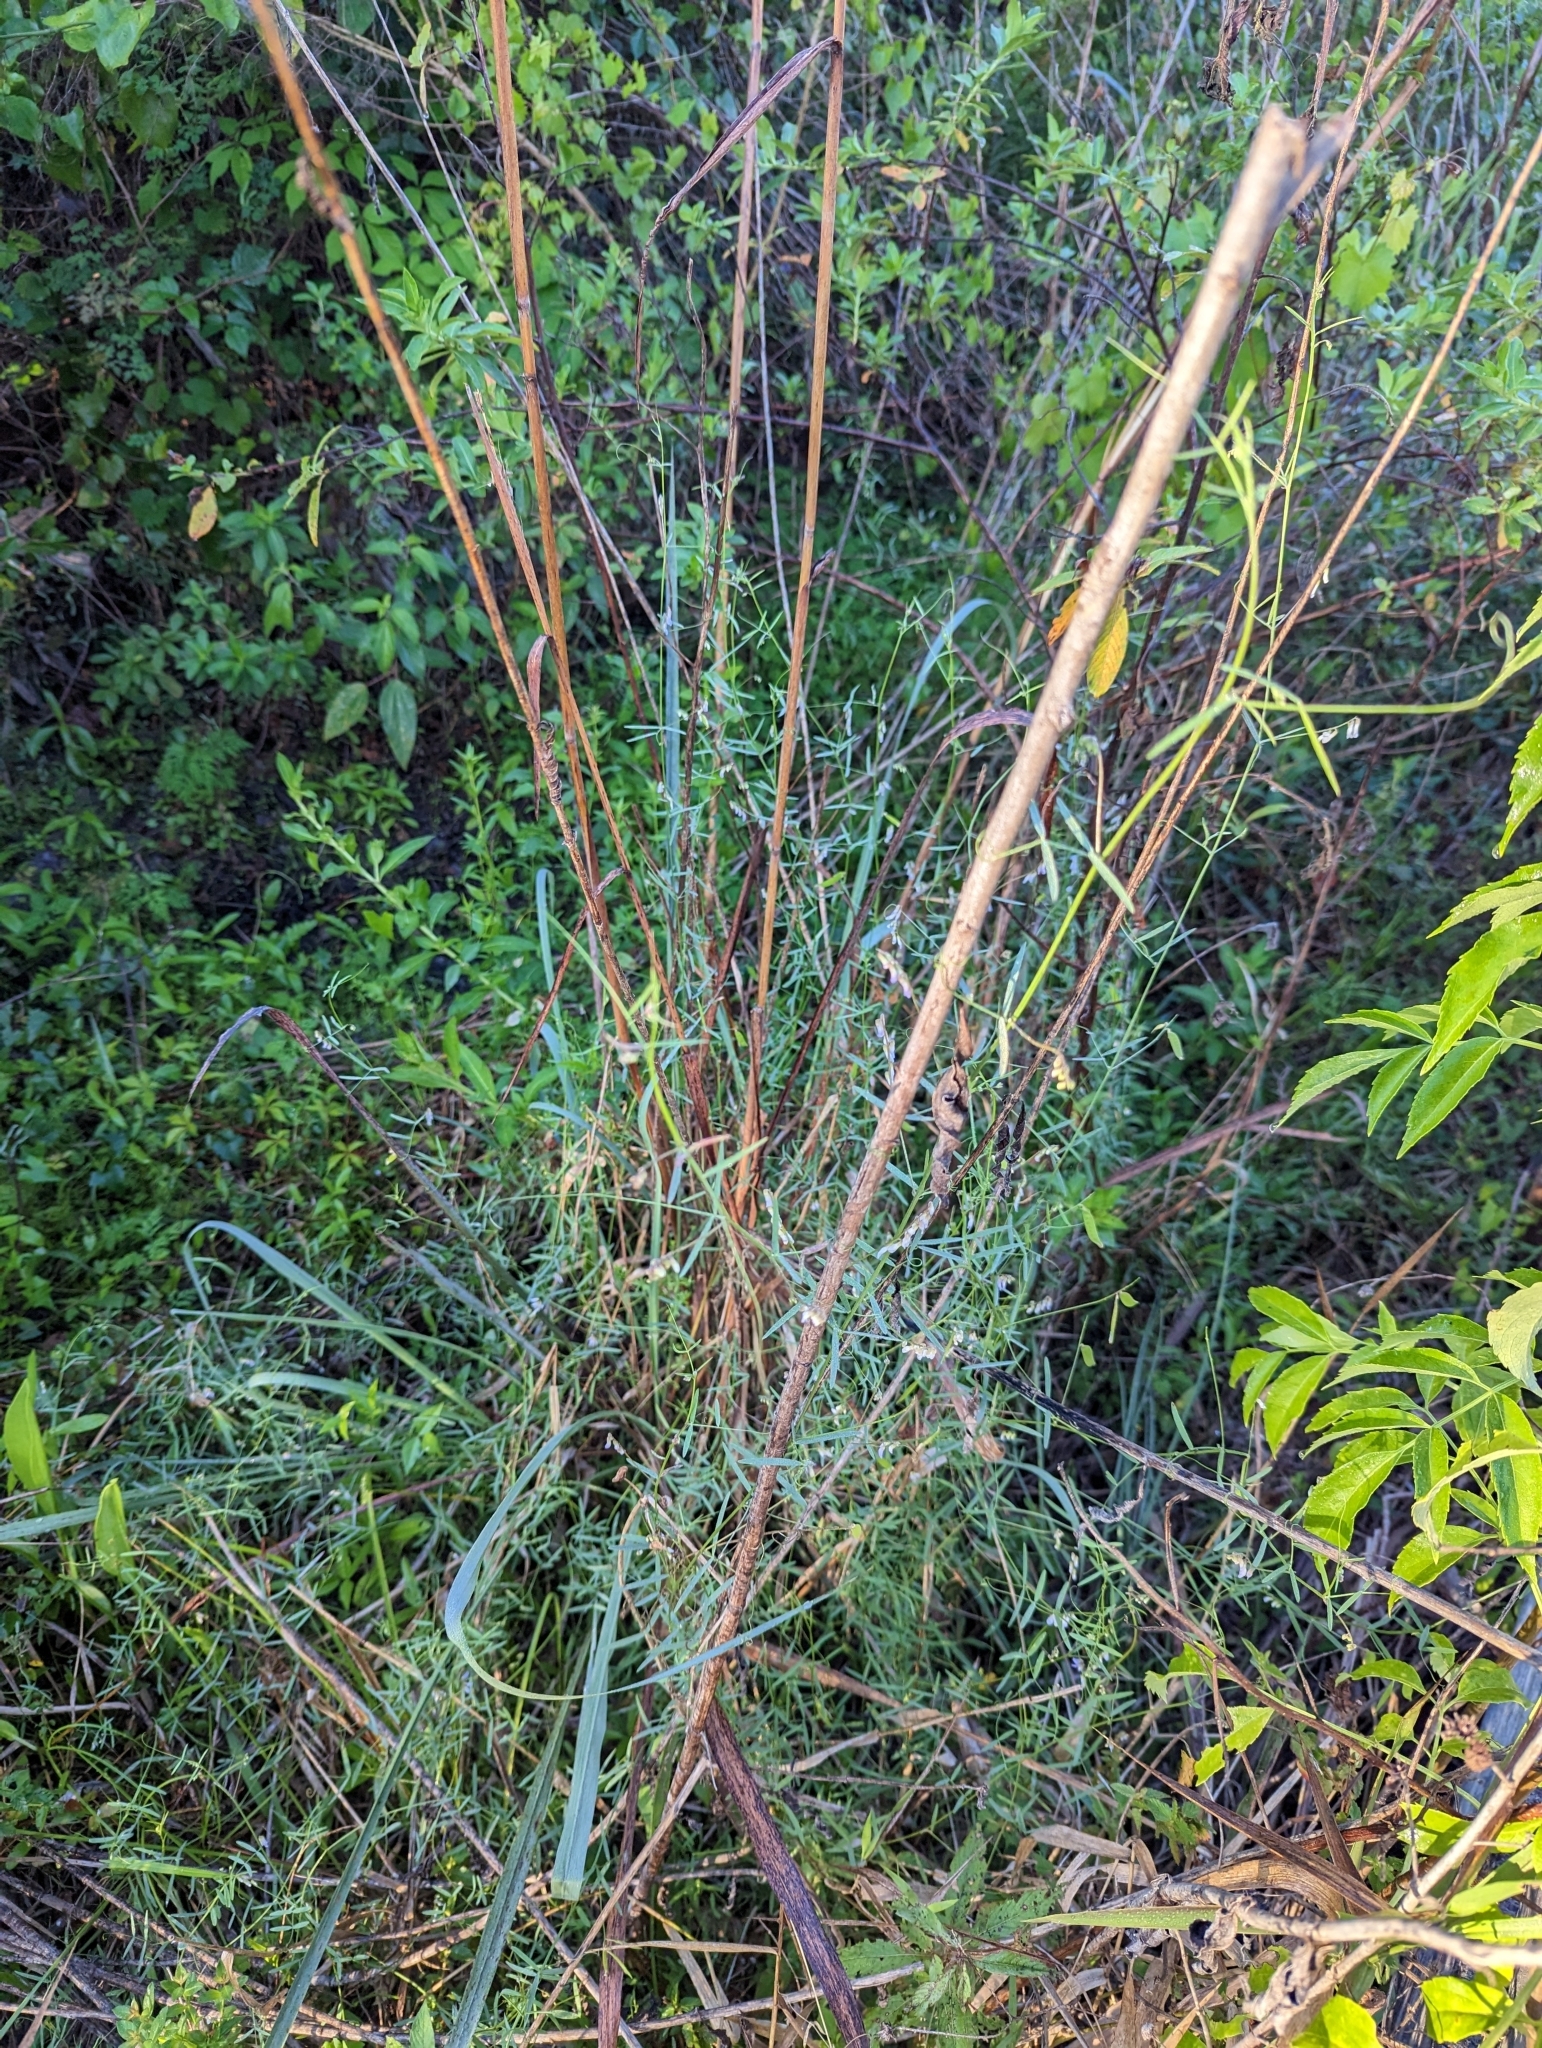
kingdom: Plantae
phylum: Tracheophyta
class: Magnoliopsida
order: Fabales
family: Fabaceae
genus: Vicia
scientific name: Vicia acutifolia
